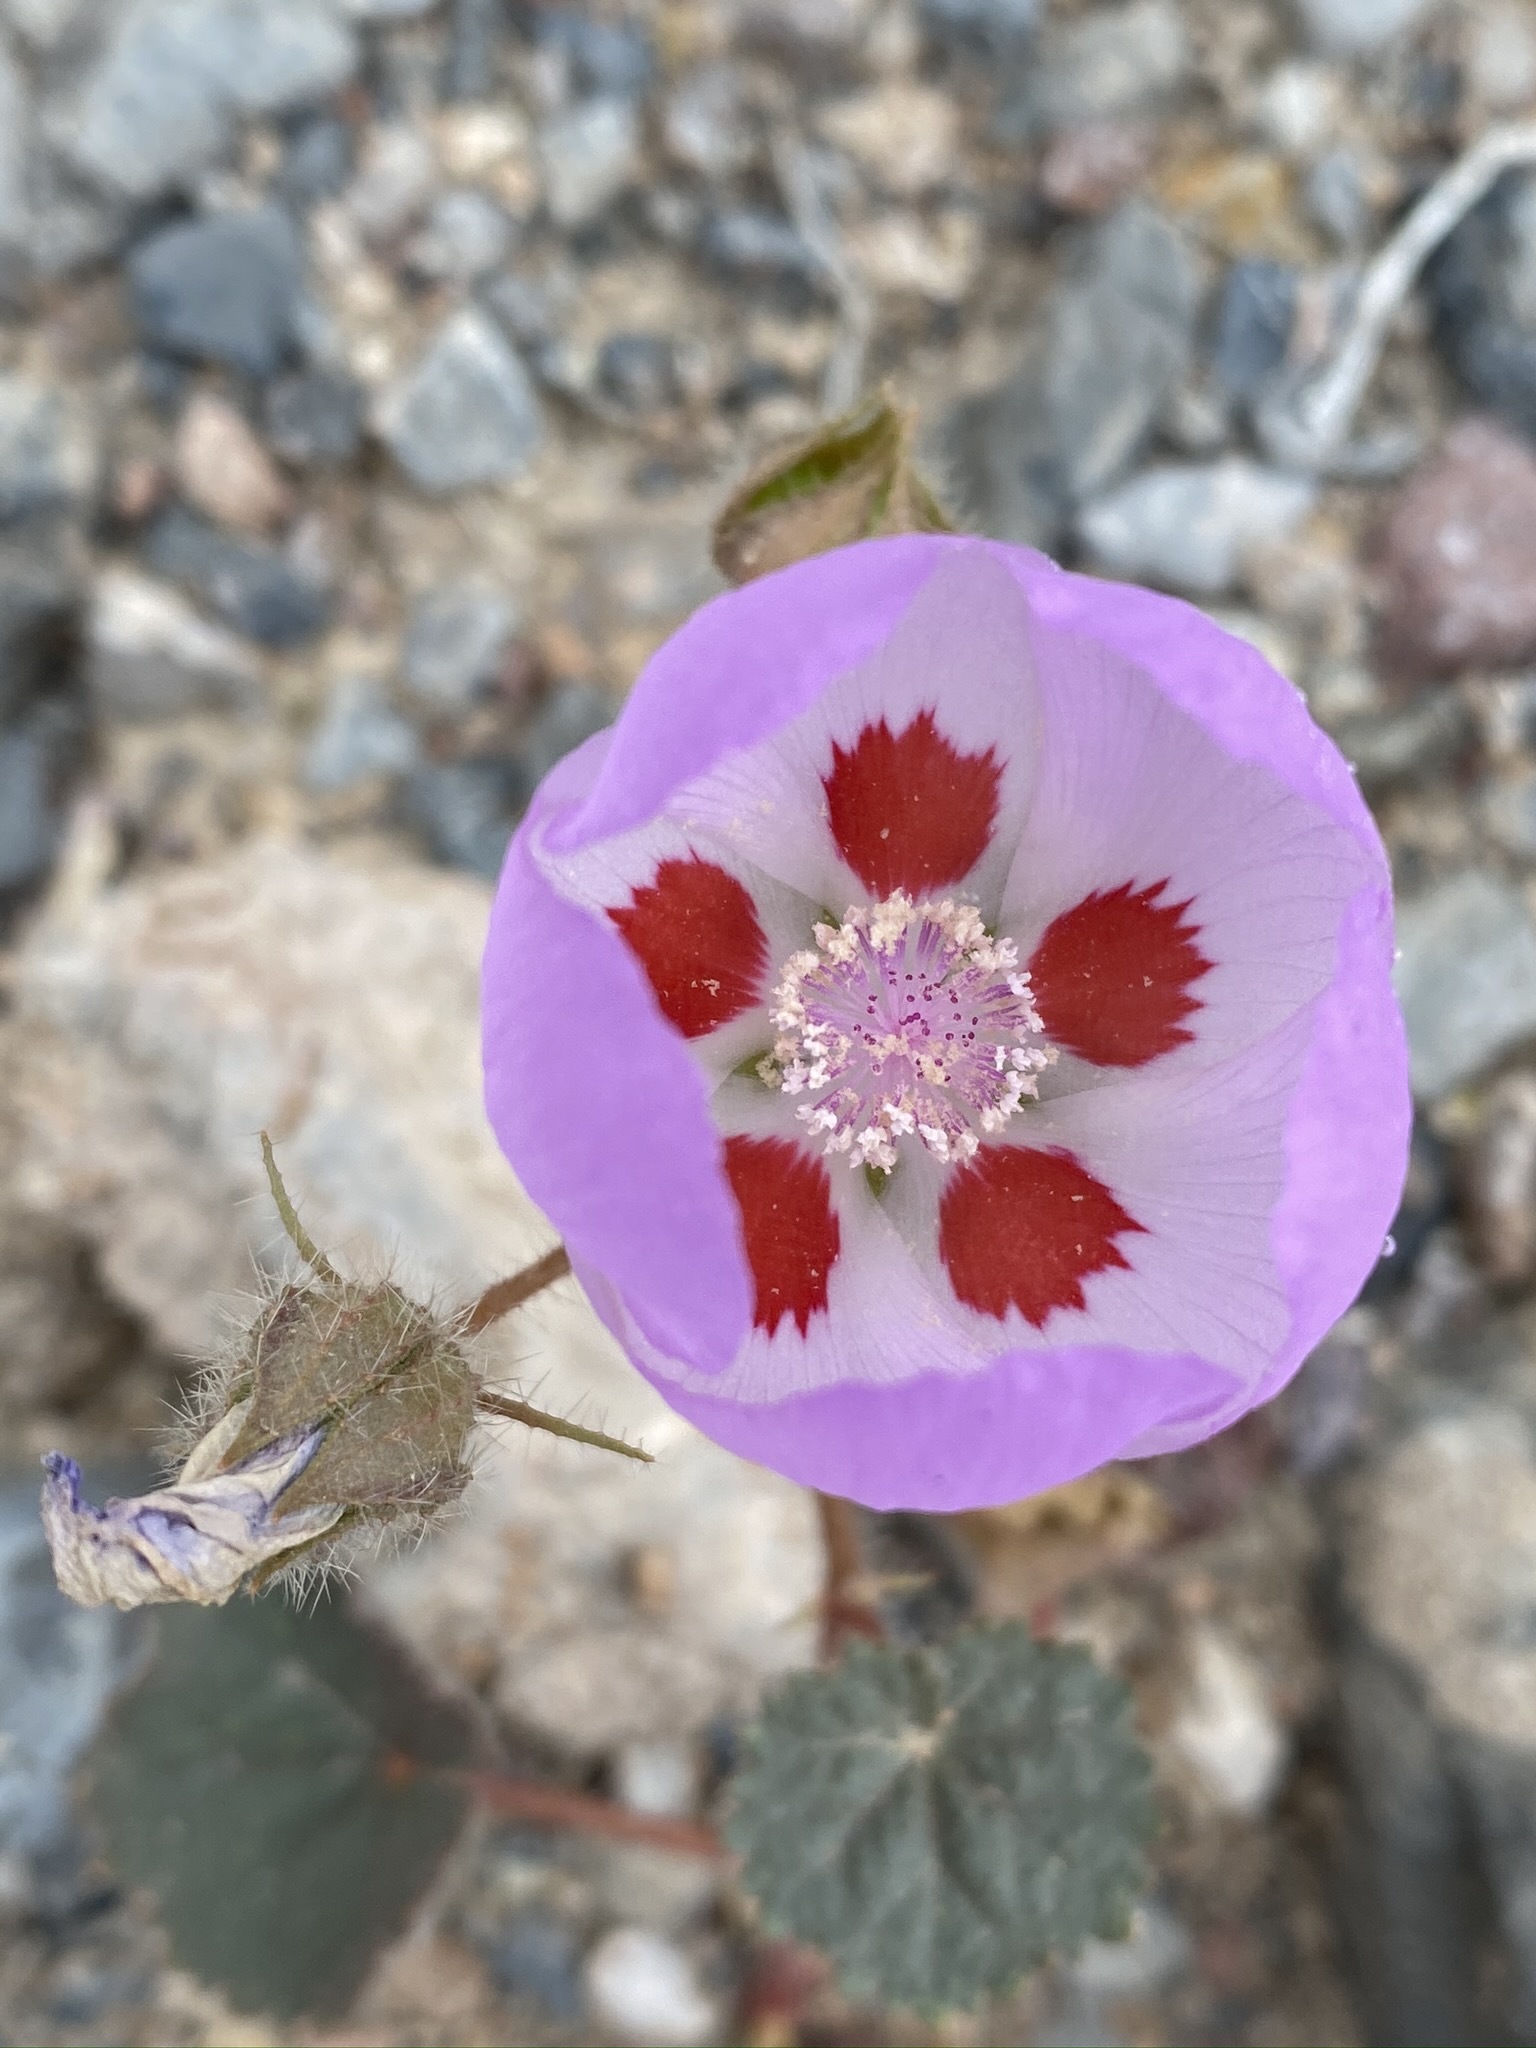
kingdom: Plantae
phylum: Tracheophyta
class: Magnoliopsida
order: Malvales
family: Malvaceae
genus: Eremalche
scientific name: Eremalche rotundifolia
